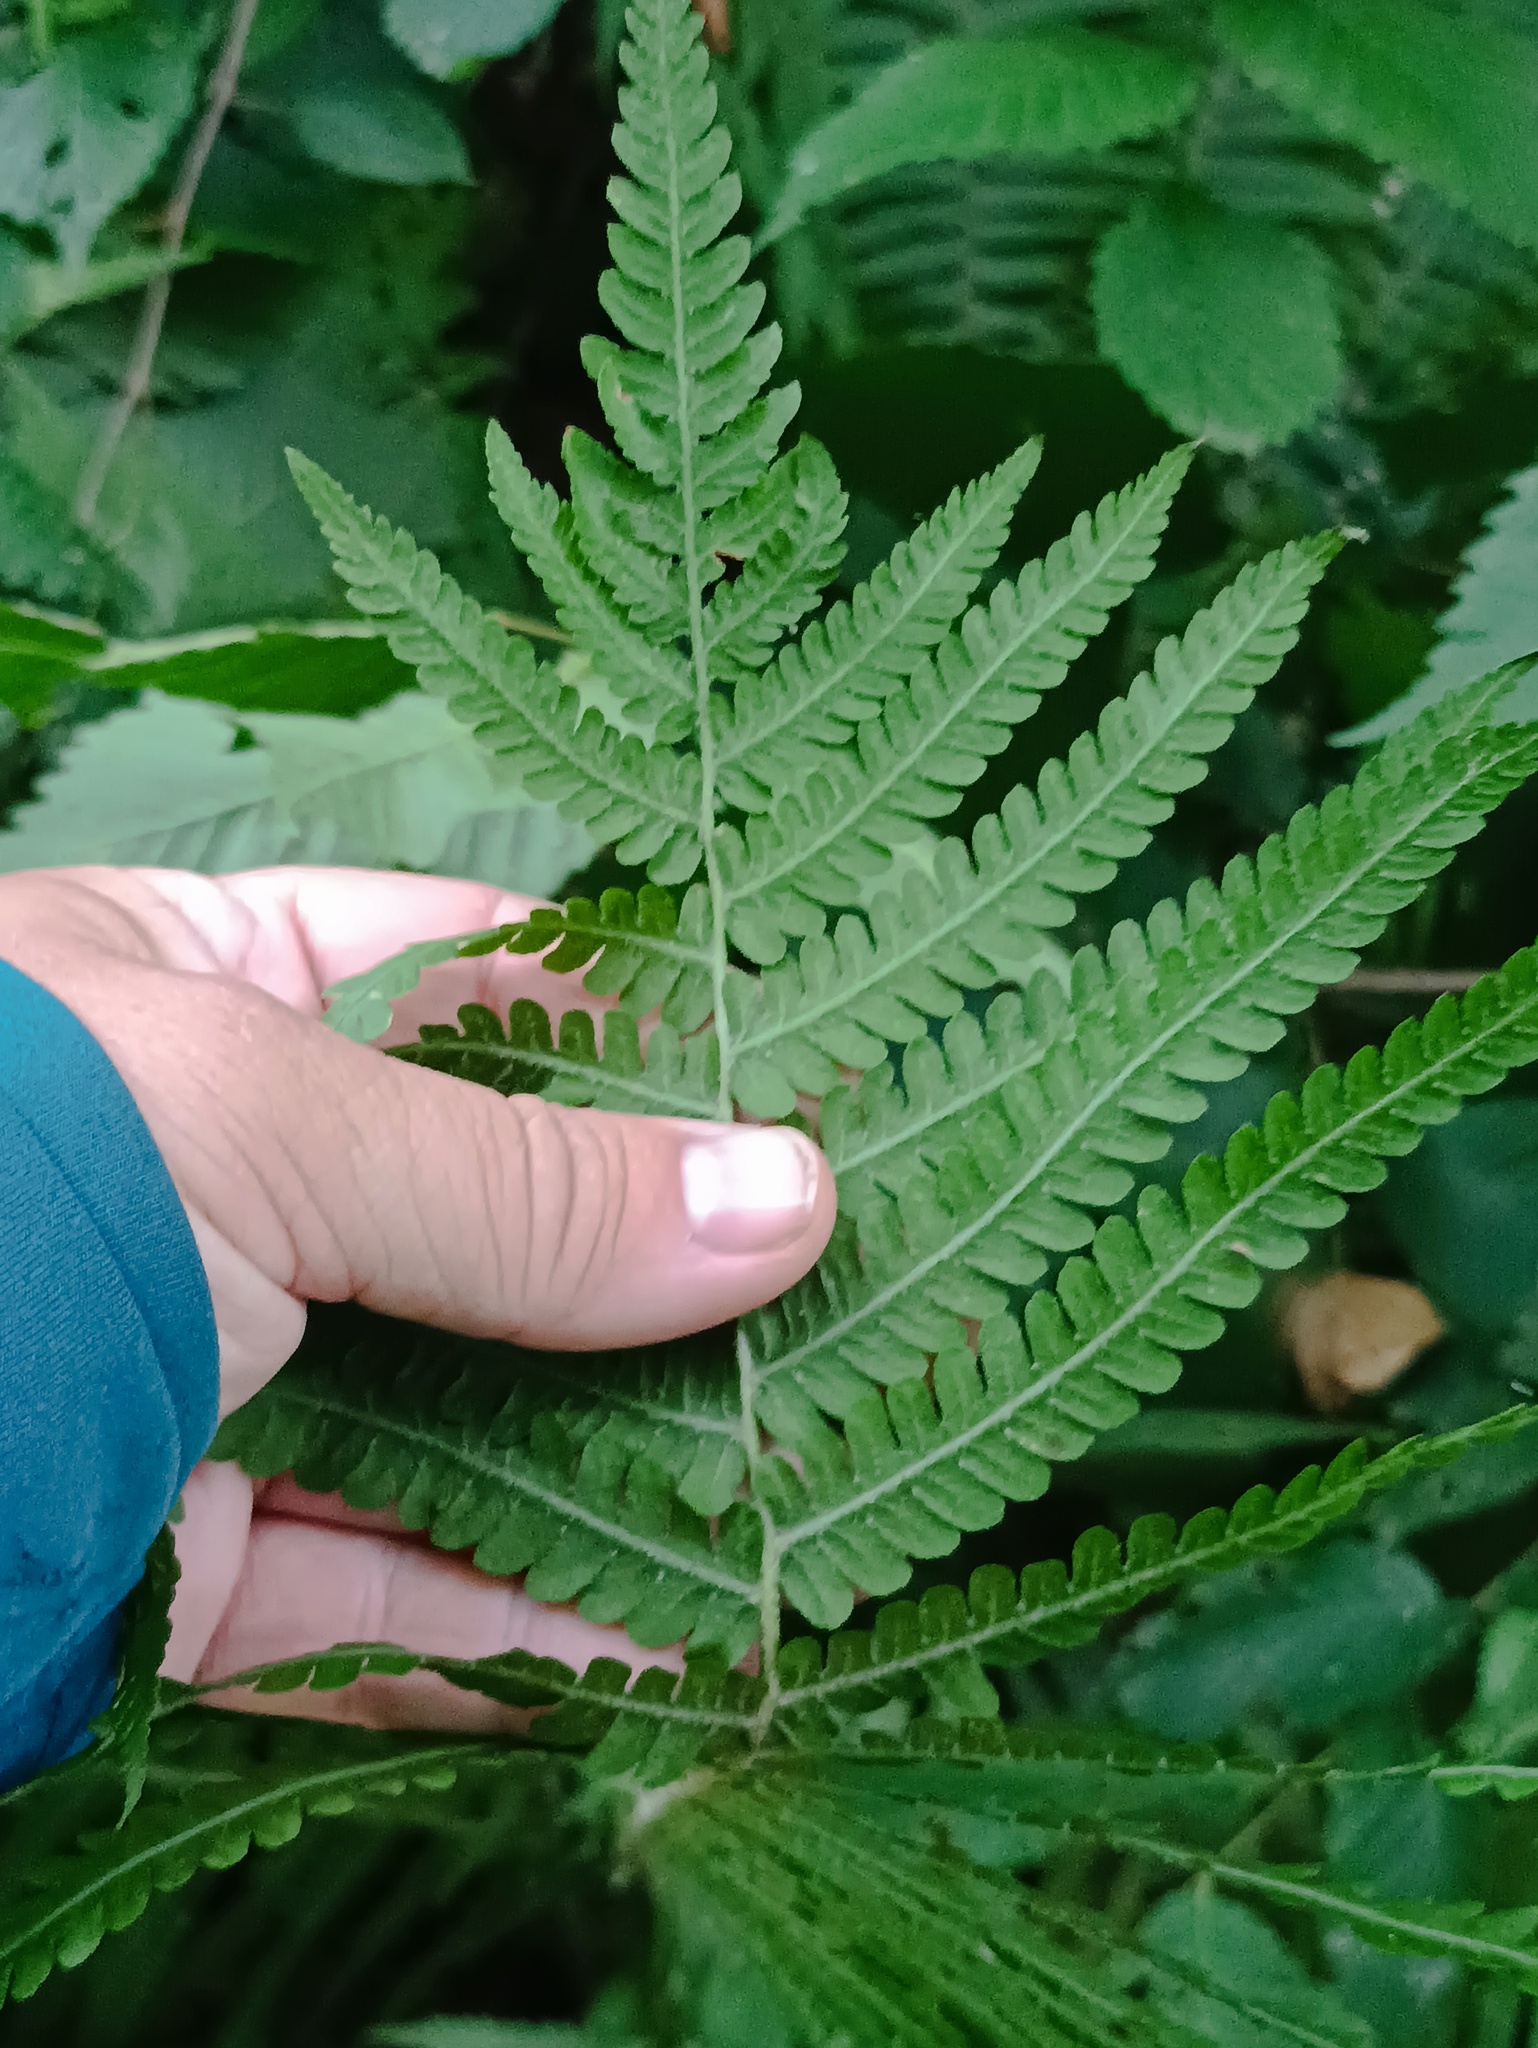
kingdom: Plantae
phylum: Tracheophyta
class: Polypodiopsida
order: Polypodiales
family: Dryopteridaceae
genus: Dryopteris
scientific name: Dryopteris filix-mas
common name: Male fern
